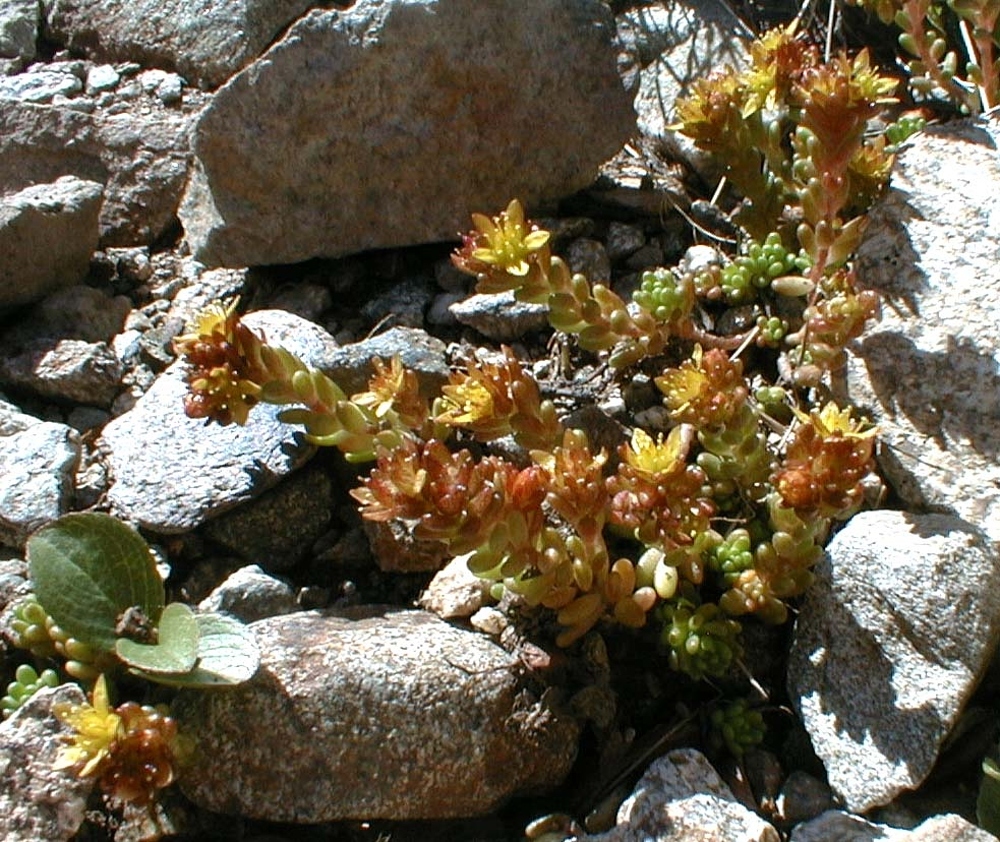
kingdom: Plantae
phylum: Tracheophyta
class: Magnoliopsida
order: Saxifragales
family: Crassulaceae
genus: Sedum
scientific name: Sedum alpestre
